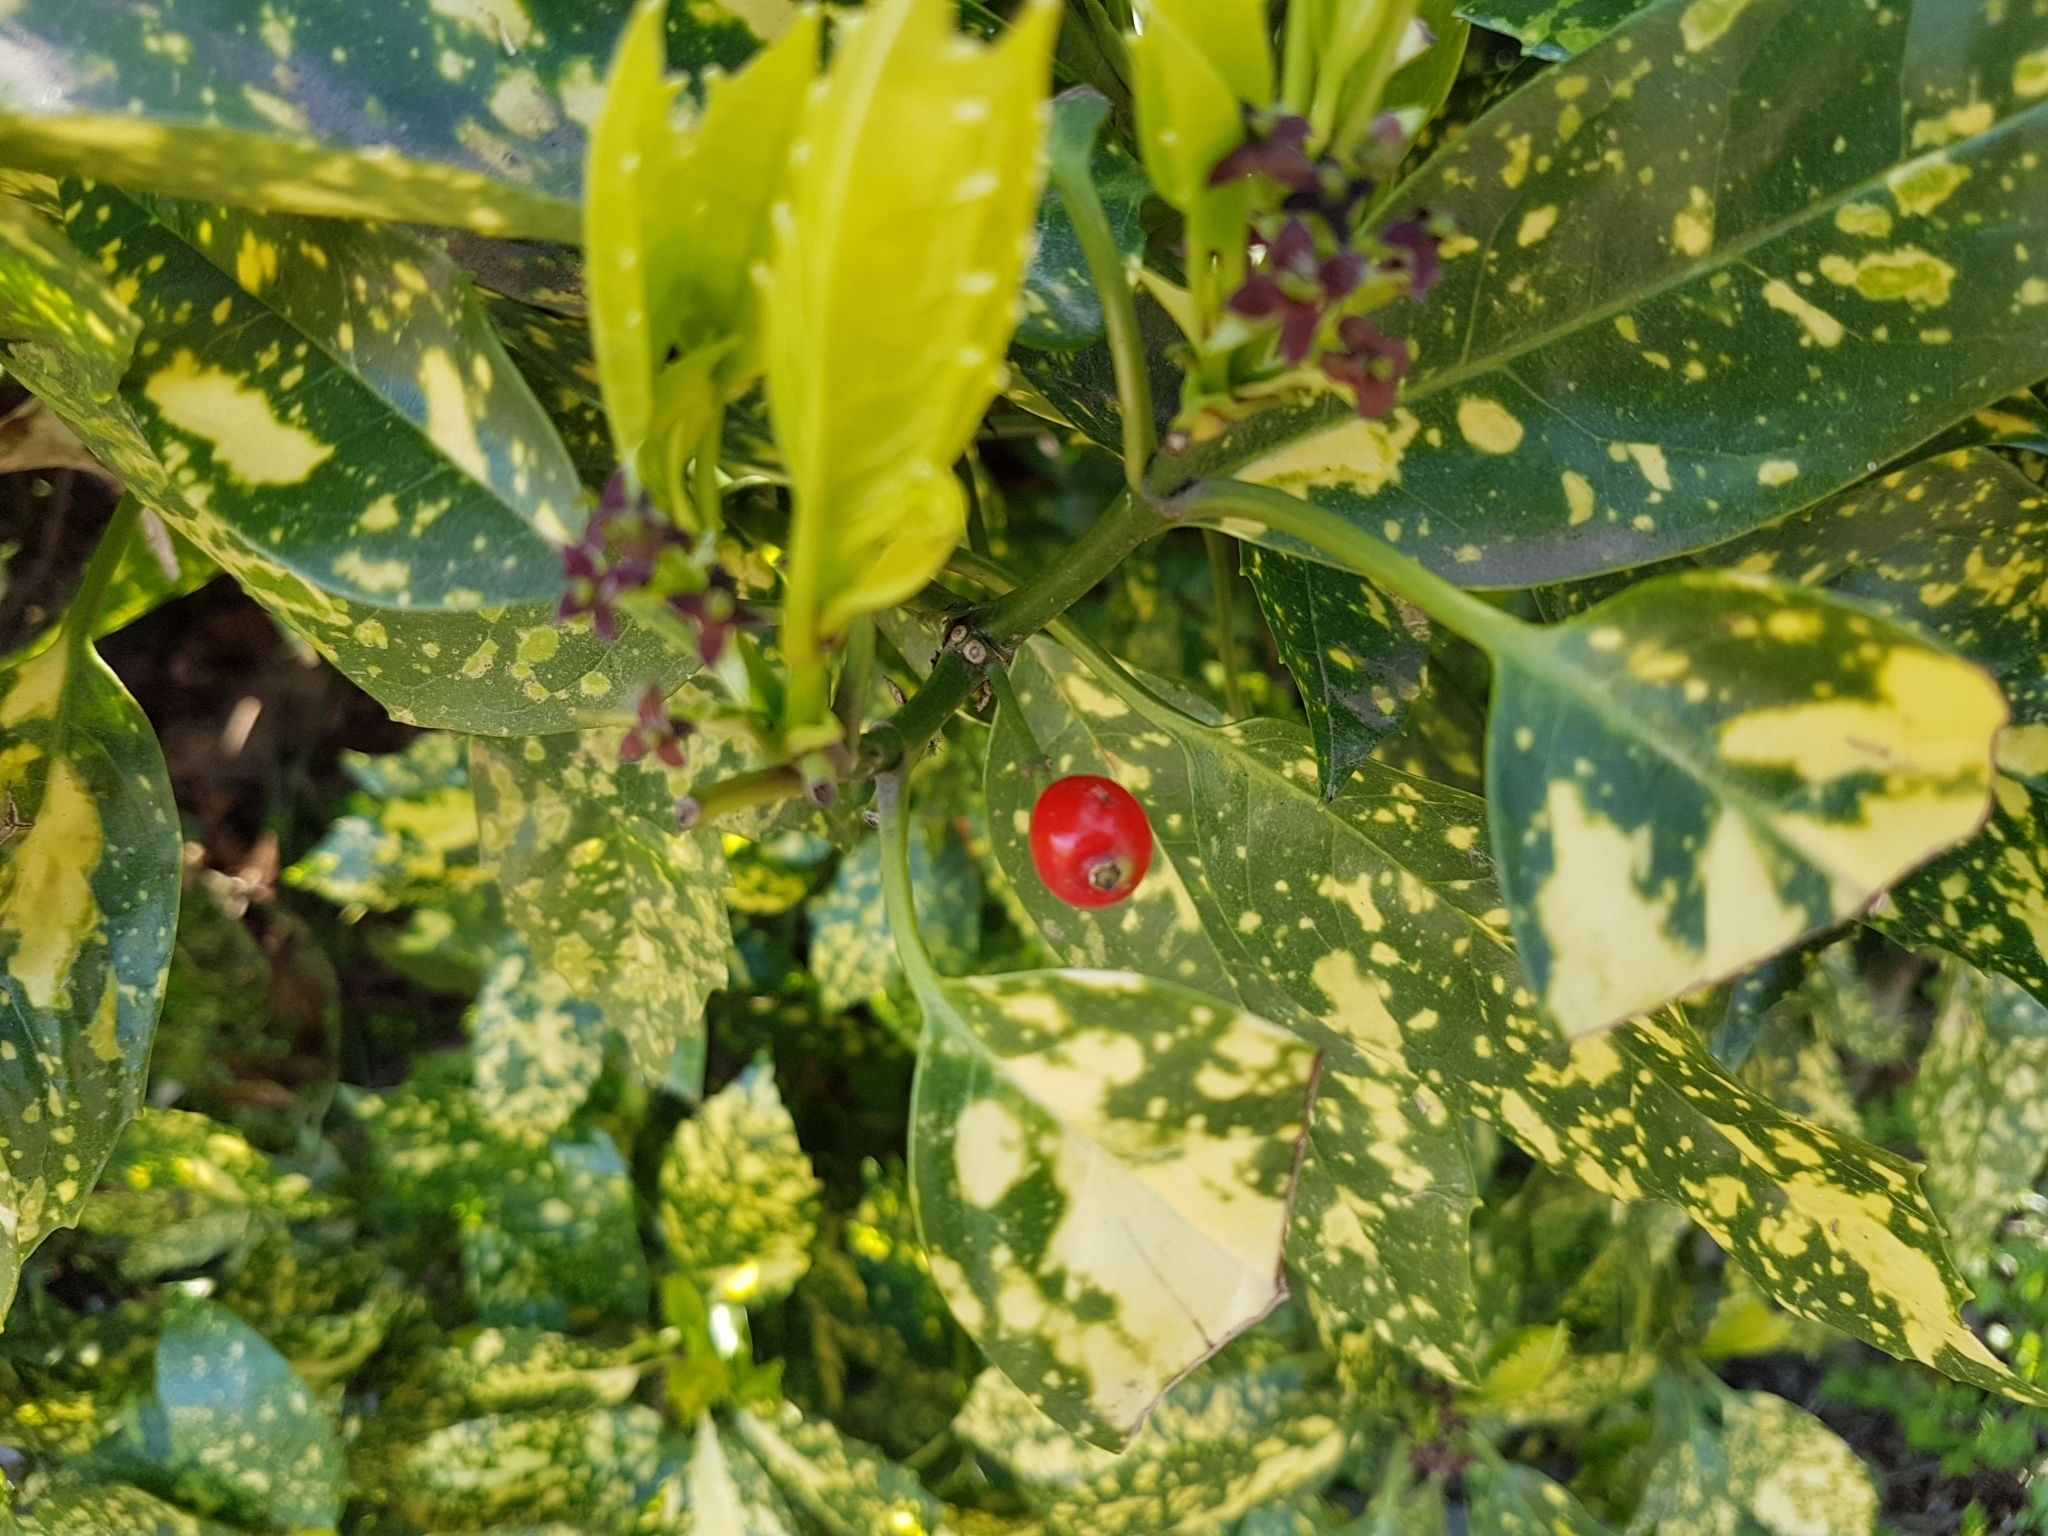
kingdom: Plantae
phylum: Tracheophyta
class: Magnoliopsida
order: Garryales
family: Garryaceae
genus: Aucuba
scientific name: Aucuba japonica
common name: Spotted-laurel
